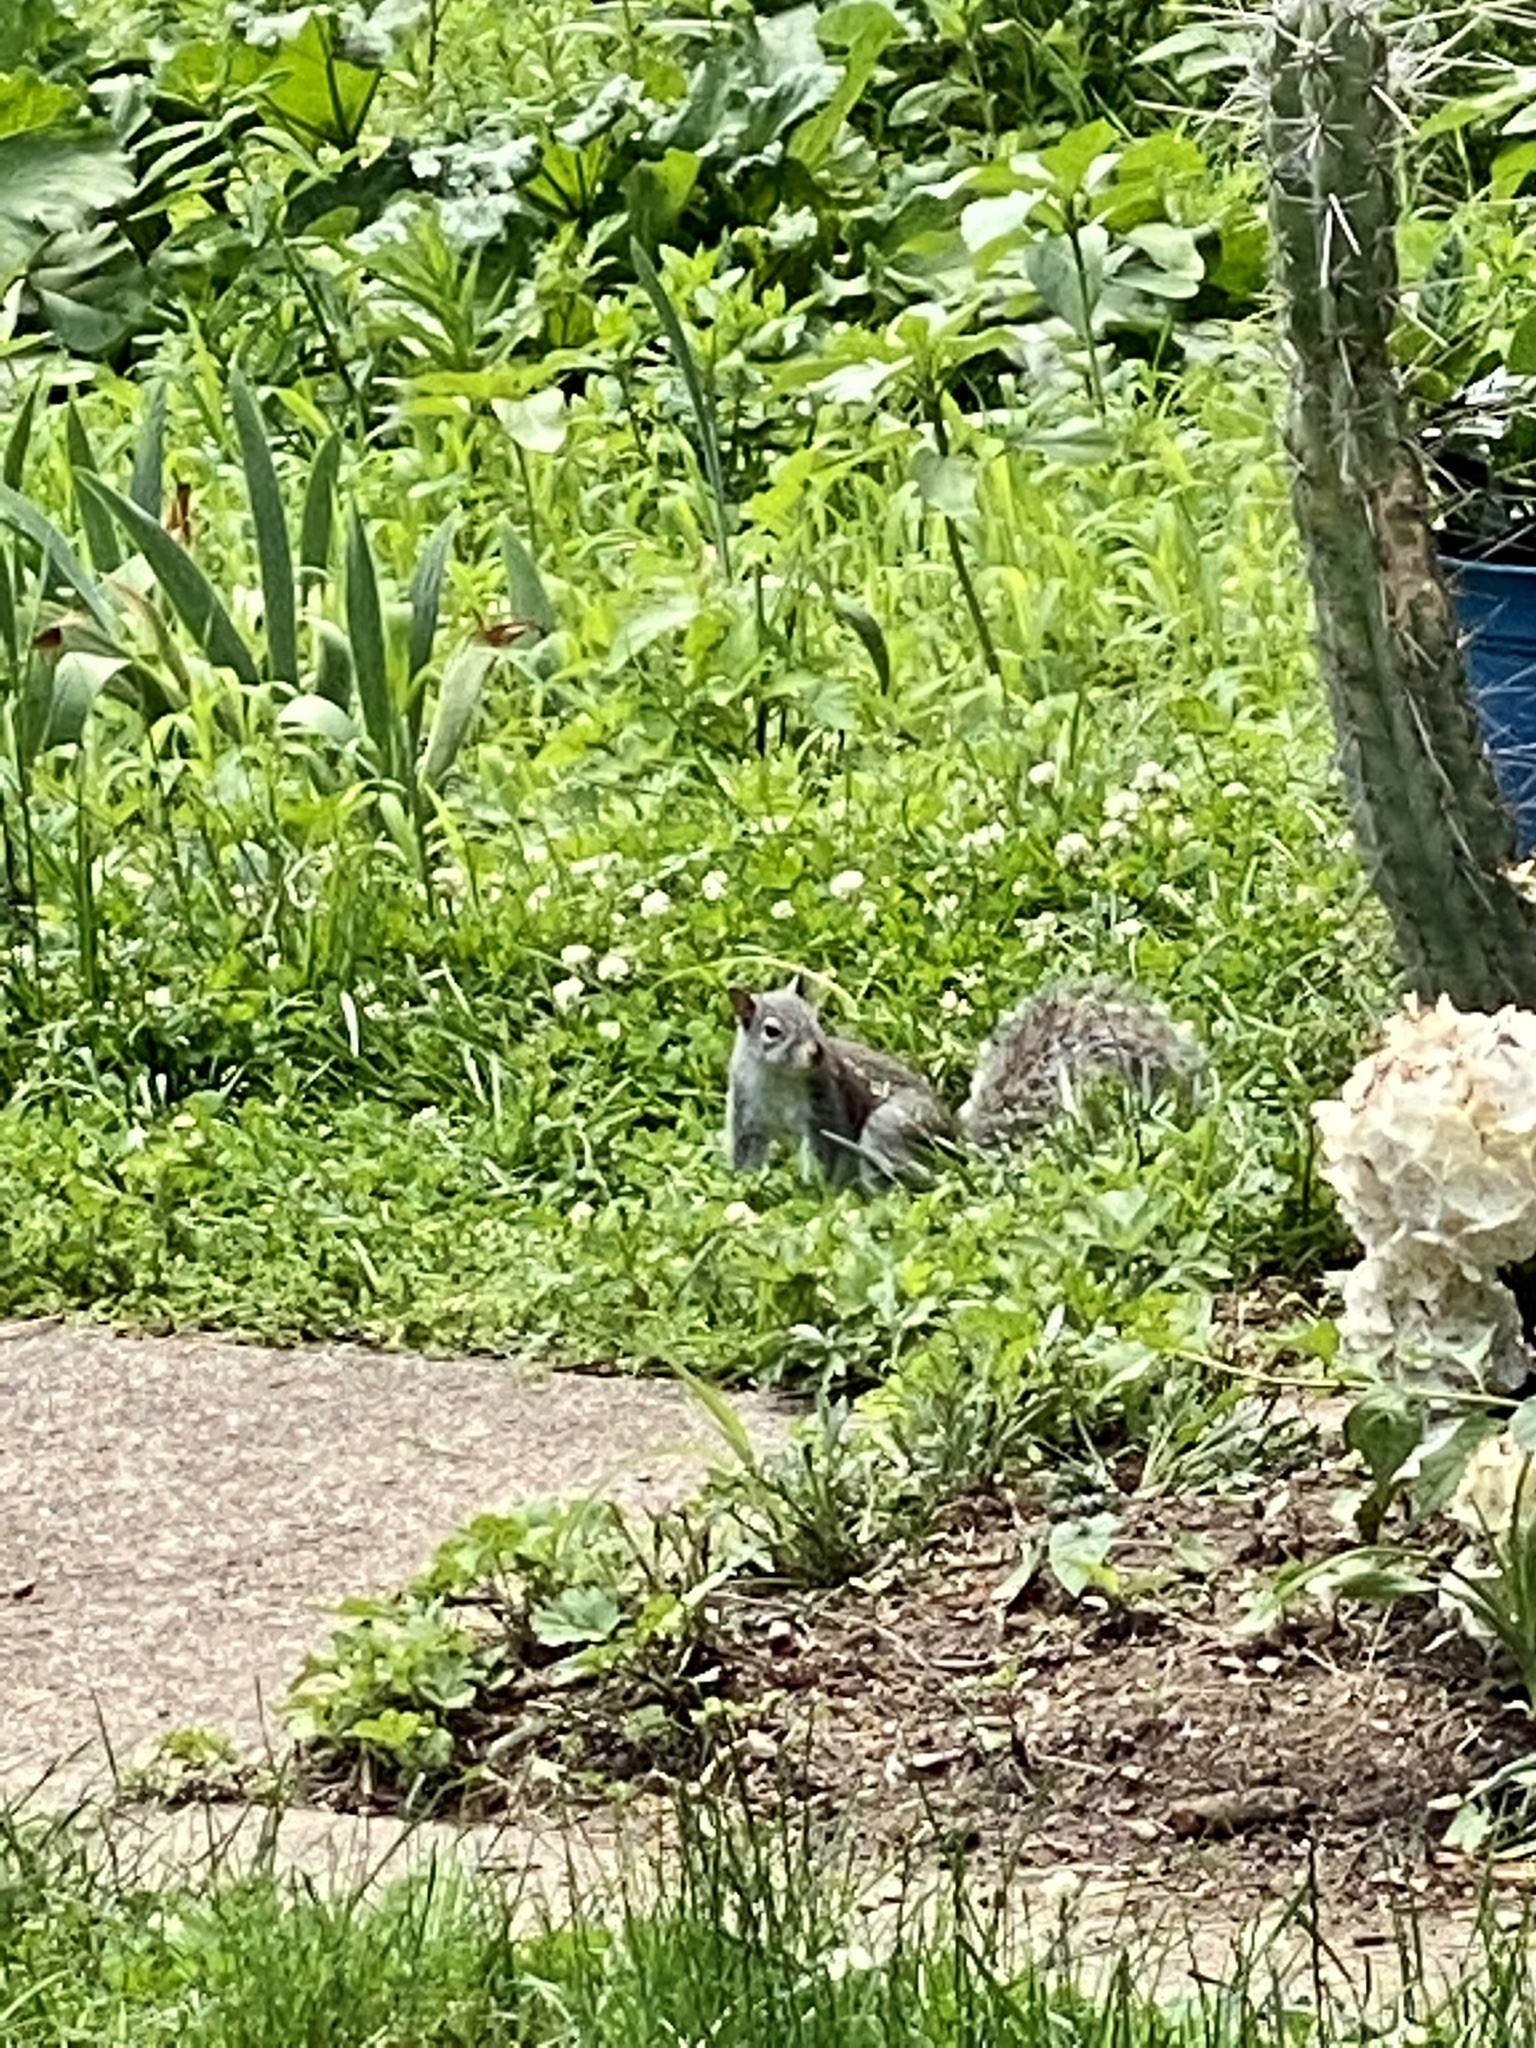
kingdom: Animalia
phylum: Chordata
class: Mammalia
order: Rodentia
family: Sciuridae
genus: Sciurus
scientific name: Sciurus carolinensis
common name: Eastern gray squirrel
